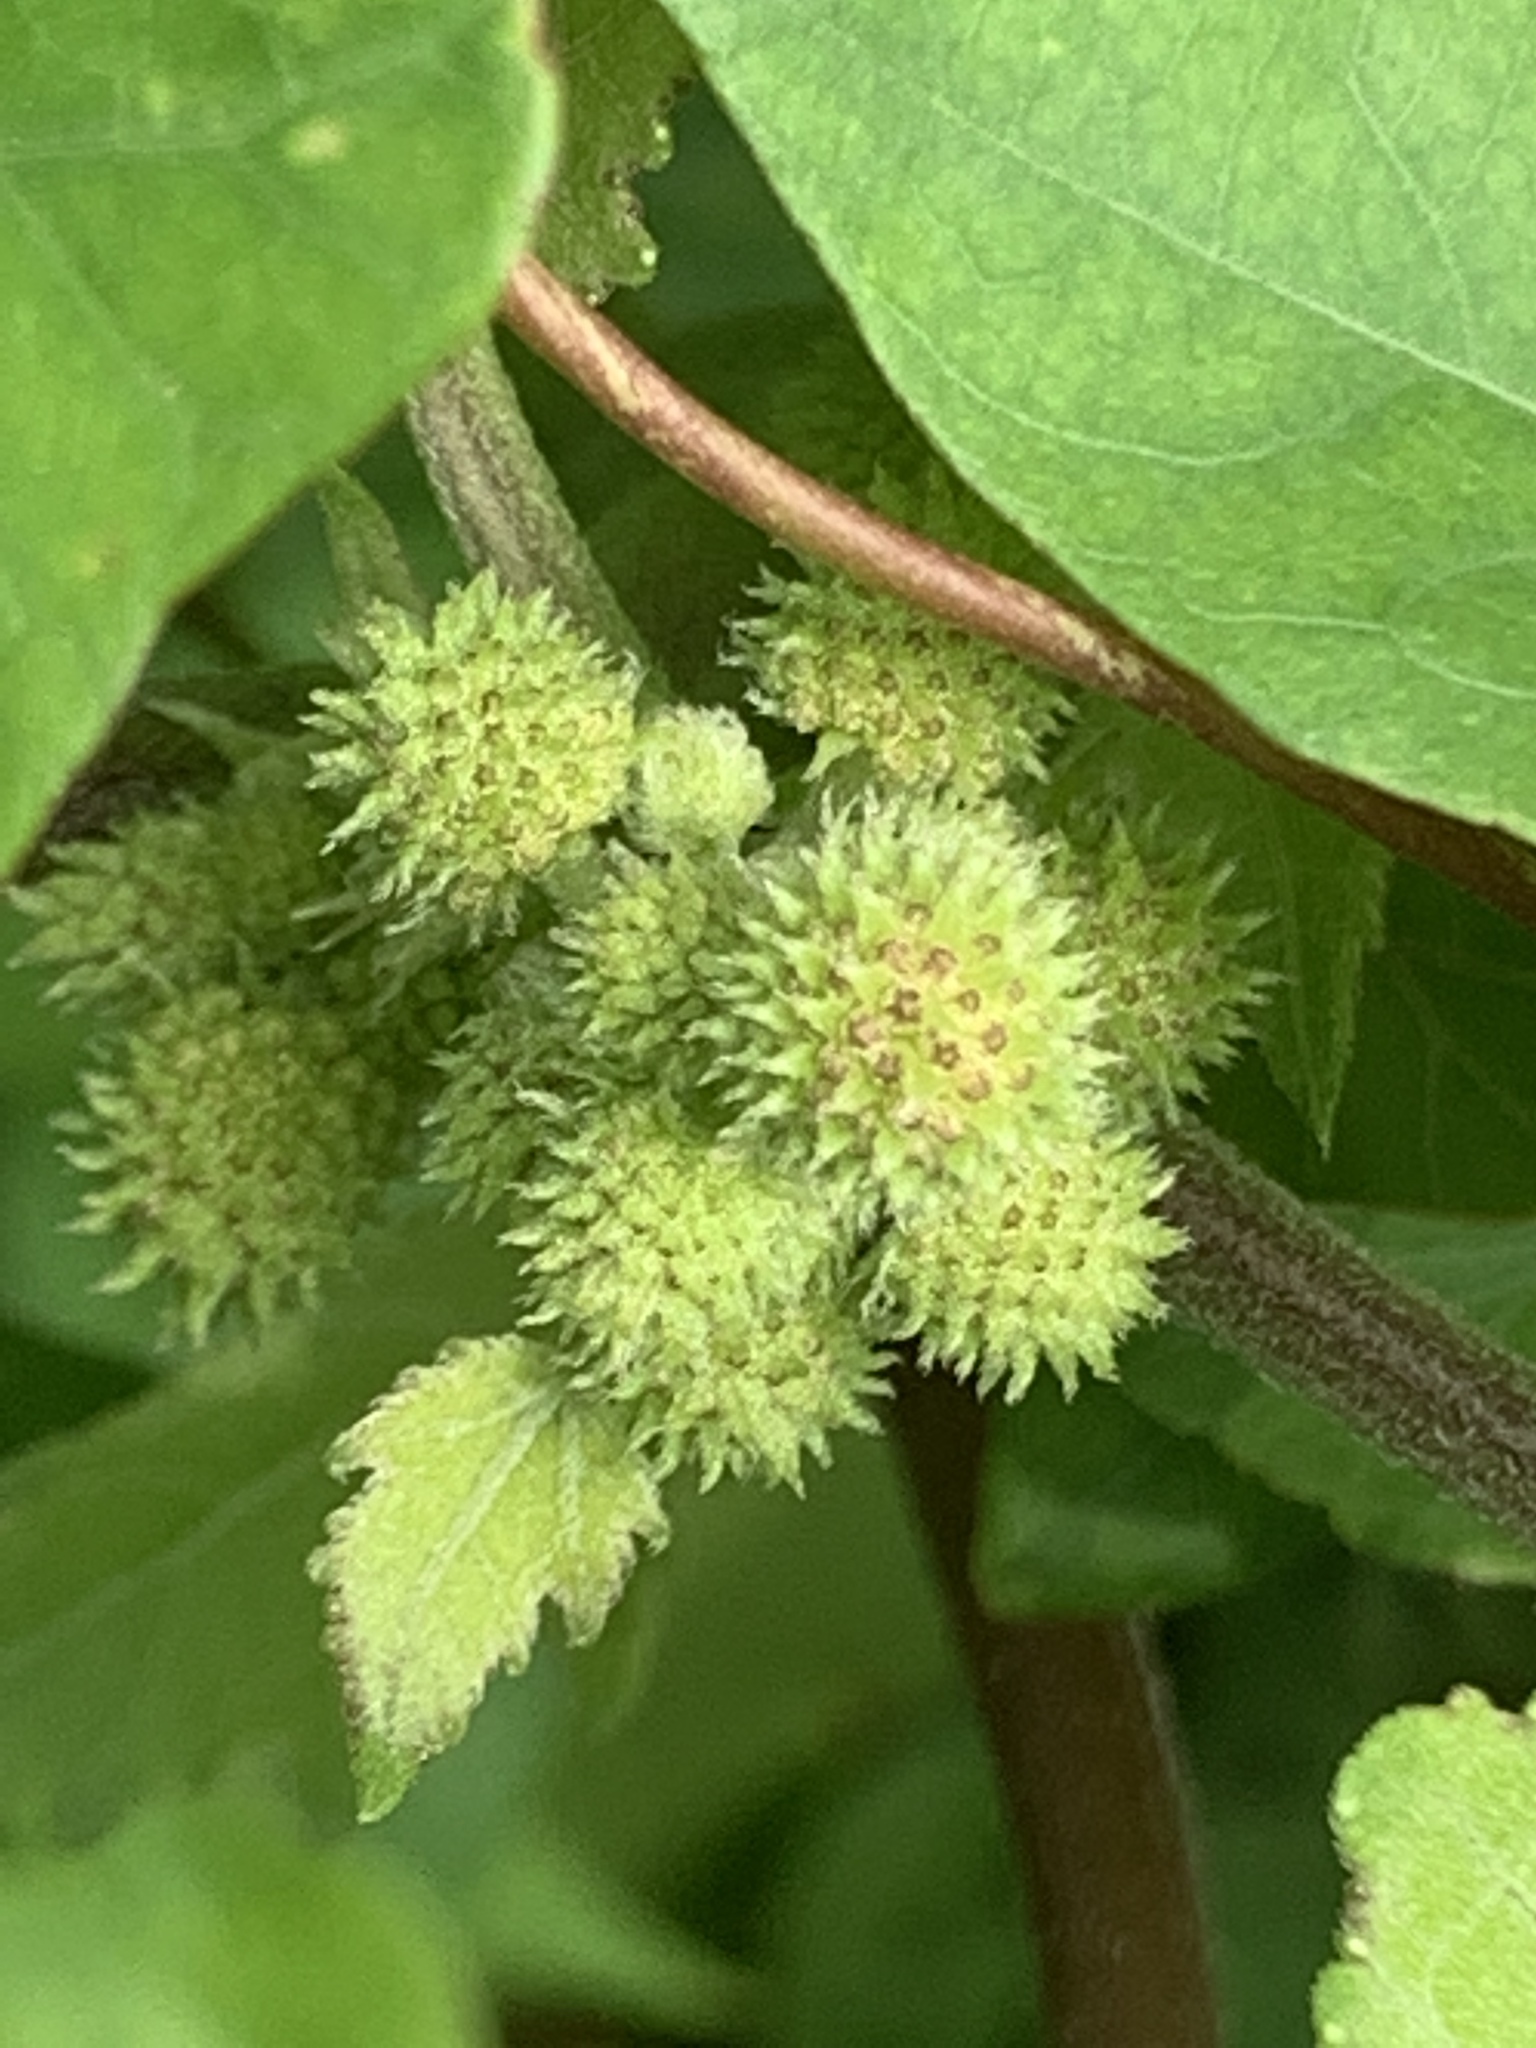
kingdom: Plantae
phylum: Tracheophyta
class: Magnoliopsida
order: Asterales
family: Asteraceae
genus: Xanthium
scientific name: Xanthium strumarium
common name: Rough cocklebur
